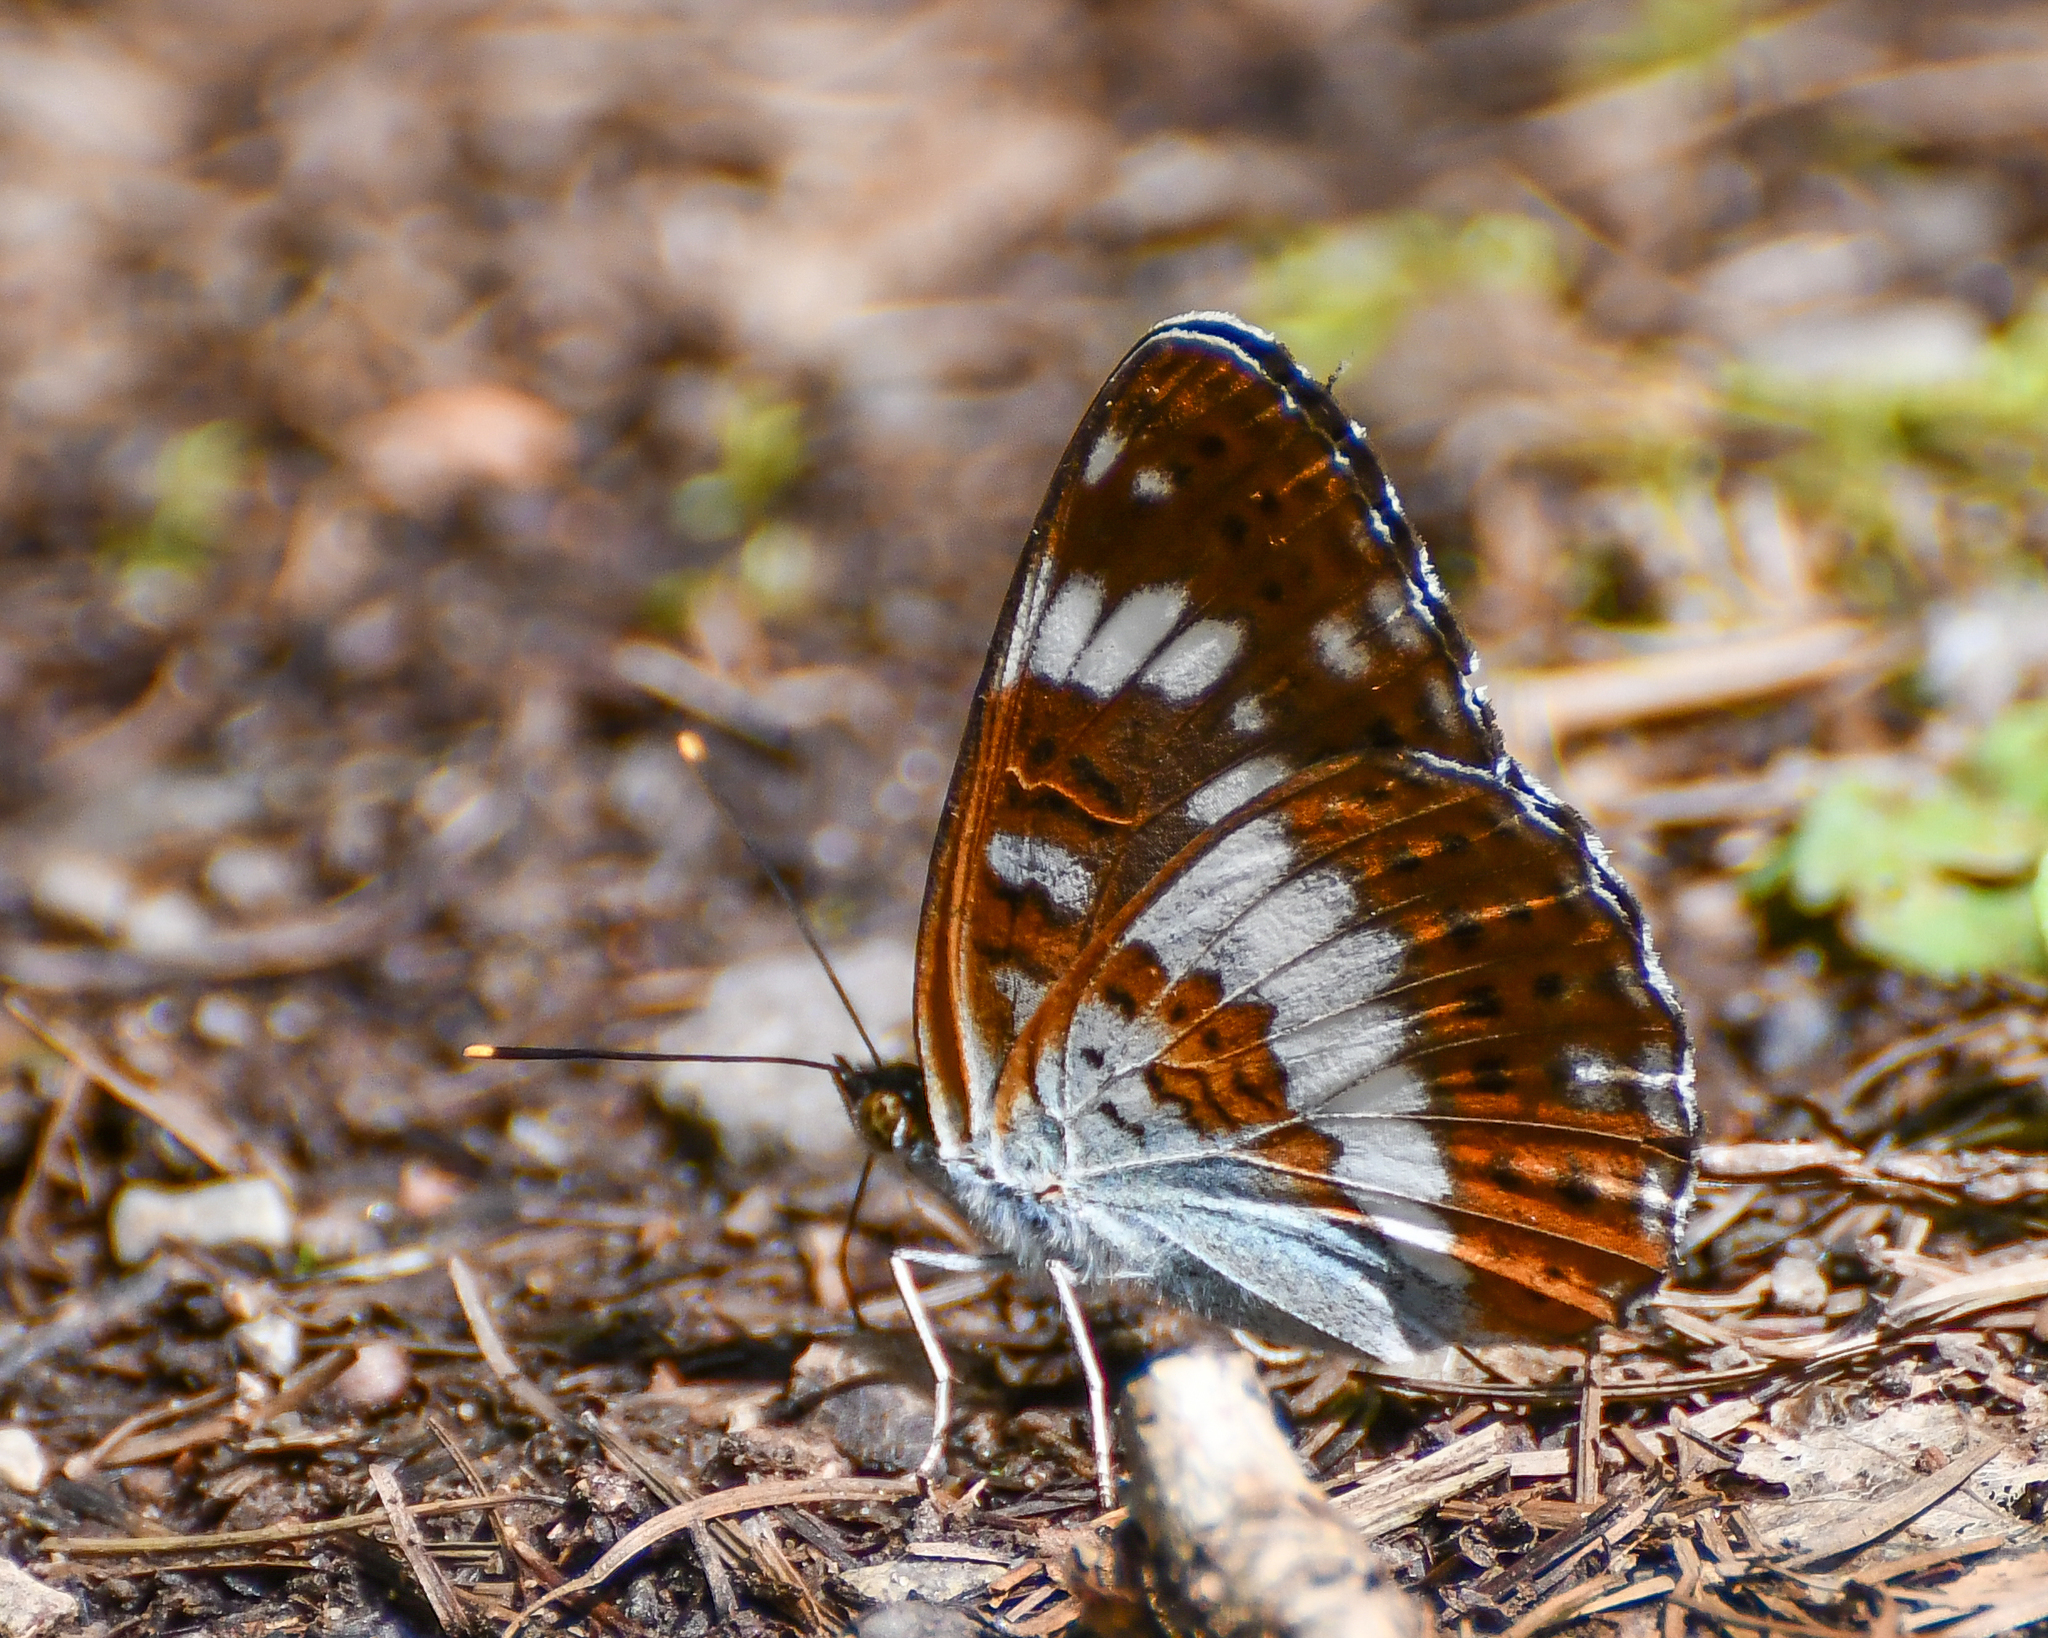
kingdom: Animalia
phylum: Arthropoda
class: Insecta
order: Lepidoptera
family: Nymphalidae
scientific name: Nymphalidae
